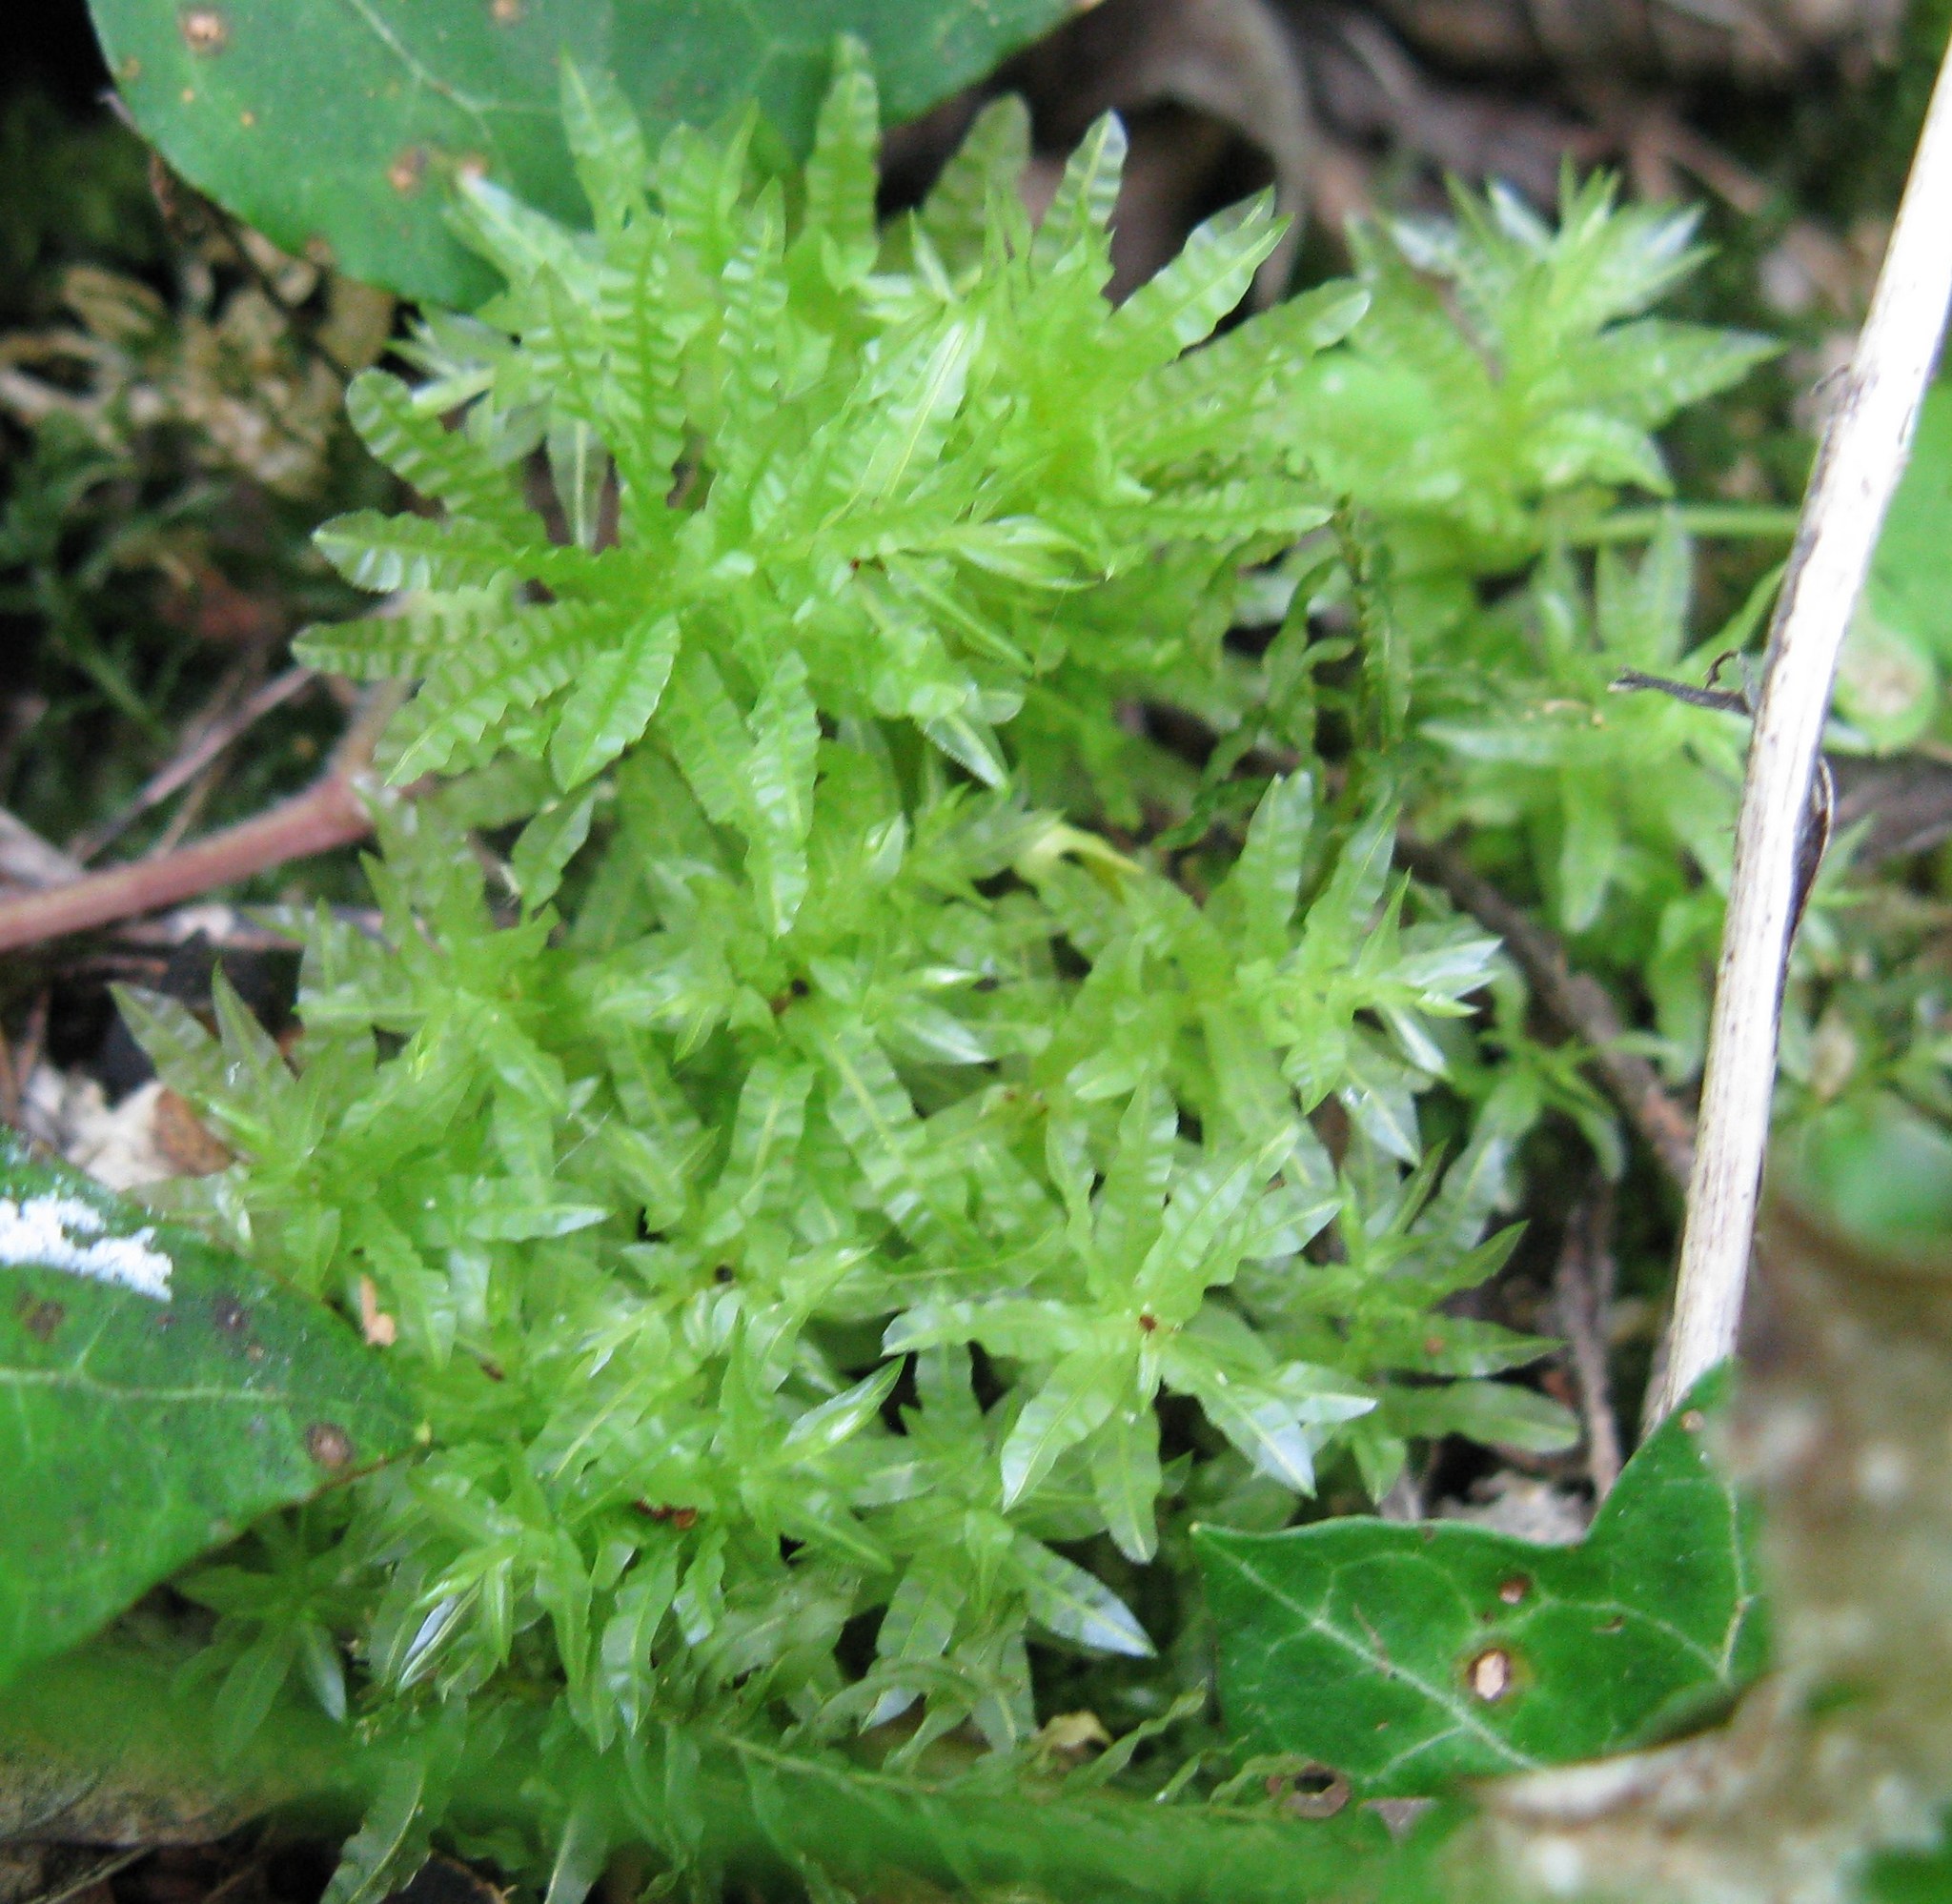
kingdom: Plantae
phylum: Bryophyta
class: Bryopsida
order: Bryales
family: Mniaceae
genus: Plagiomnium
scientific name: Plagiomnium undulatum
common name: Hart's-tongue thyme-moss
